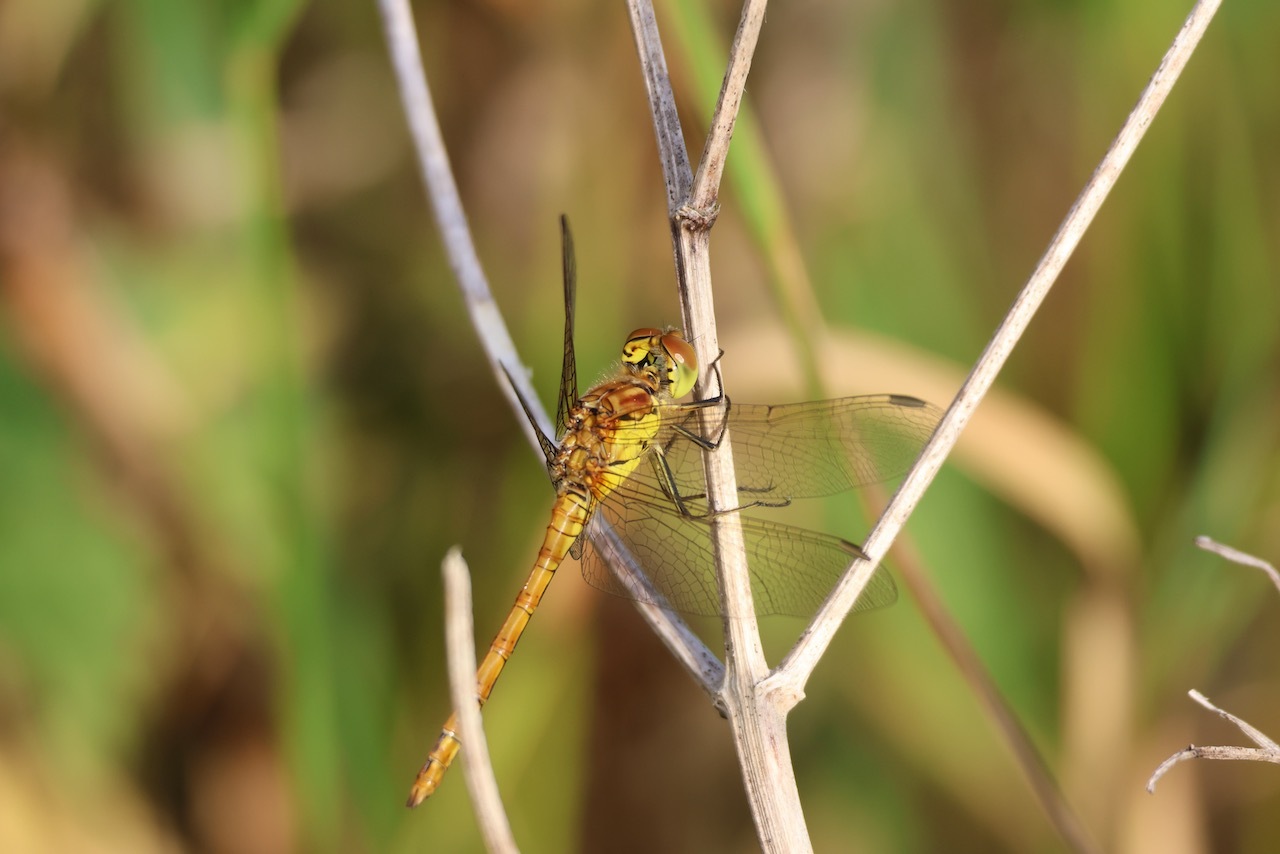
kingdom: Animalia
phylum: Arthropoda
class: Insecta
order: Odonata
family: Libellulidae
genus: Sympetrum
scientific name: Sympetrum striolatum
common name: Common darter
